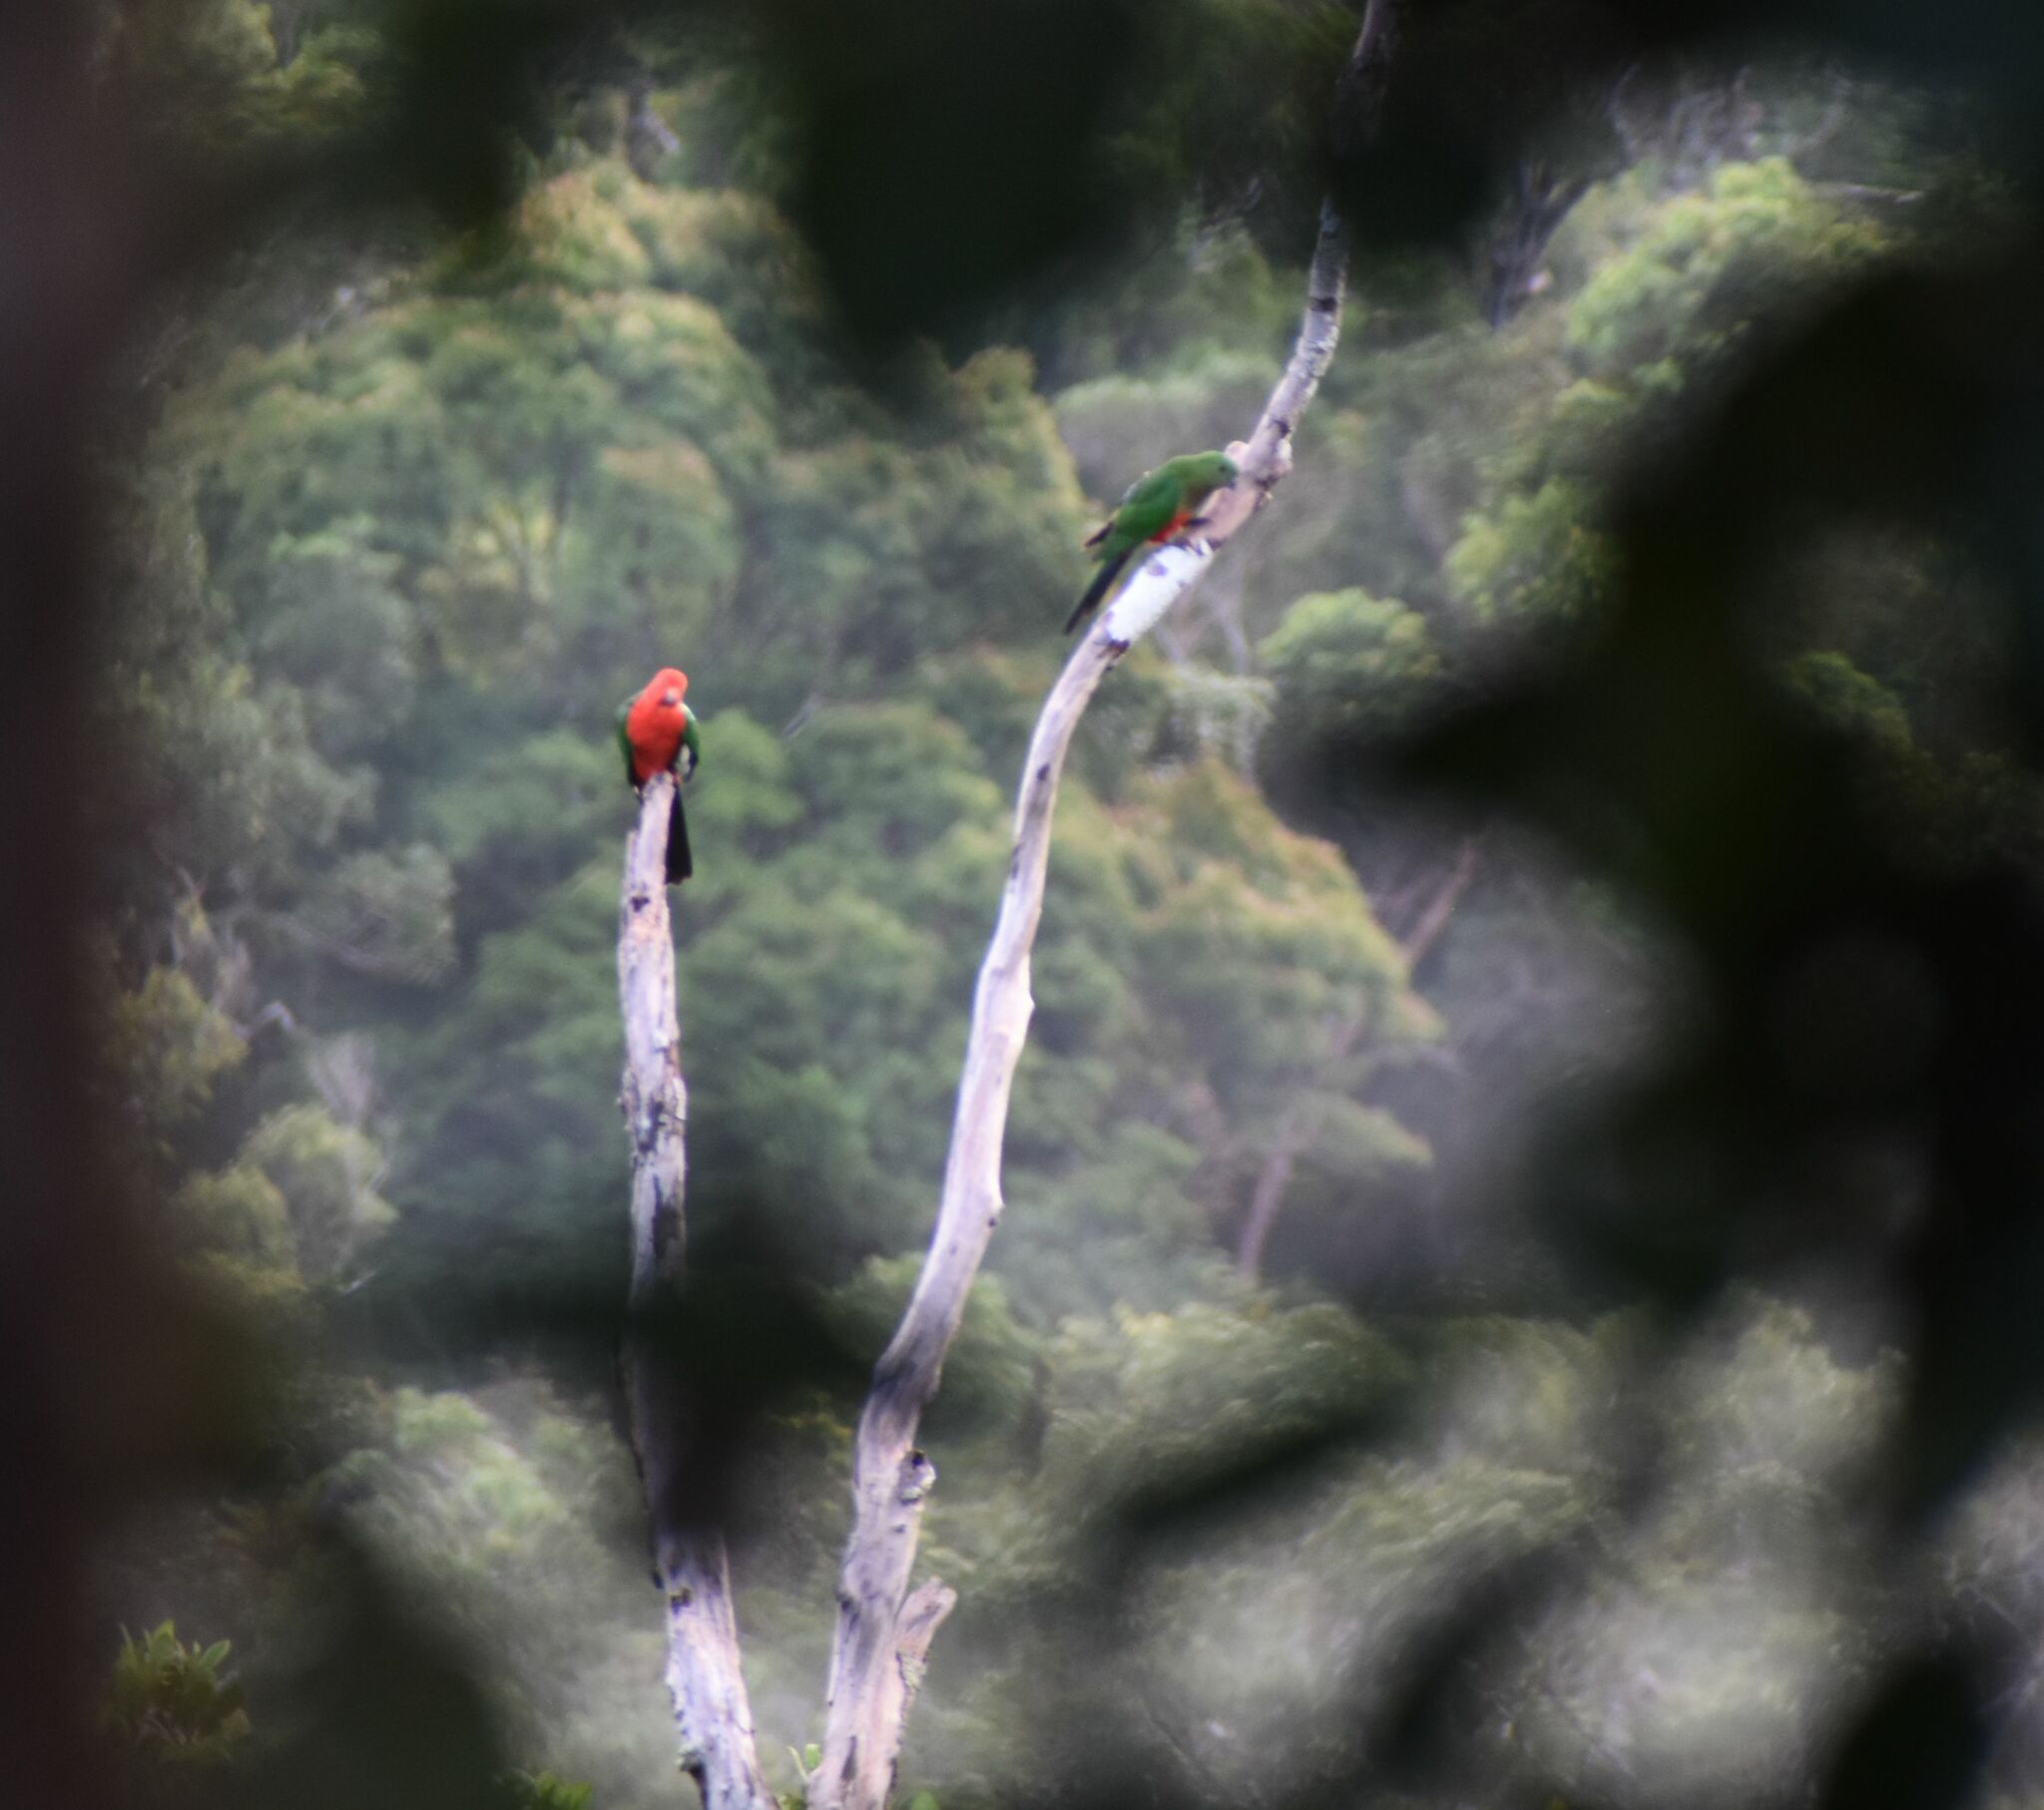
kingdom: Animalia
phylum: Chordata
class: Aves
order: Psittaciformes
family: Psittacidae
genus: Alisterus
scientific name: Alisterus scapularis
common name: Australian king parrot
